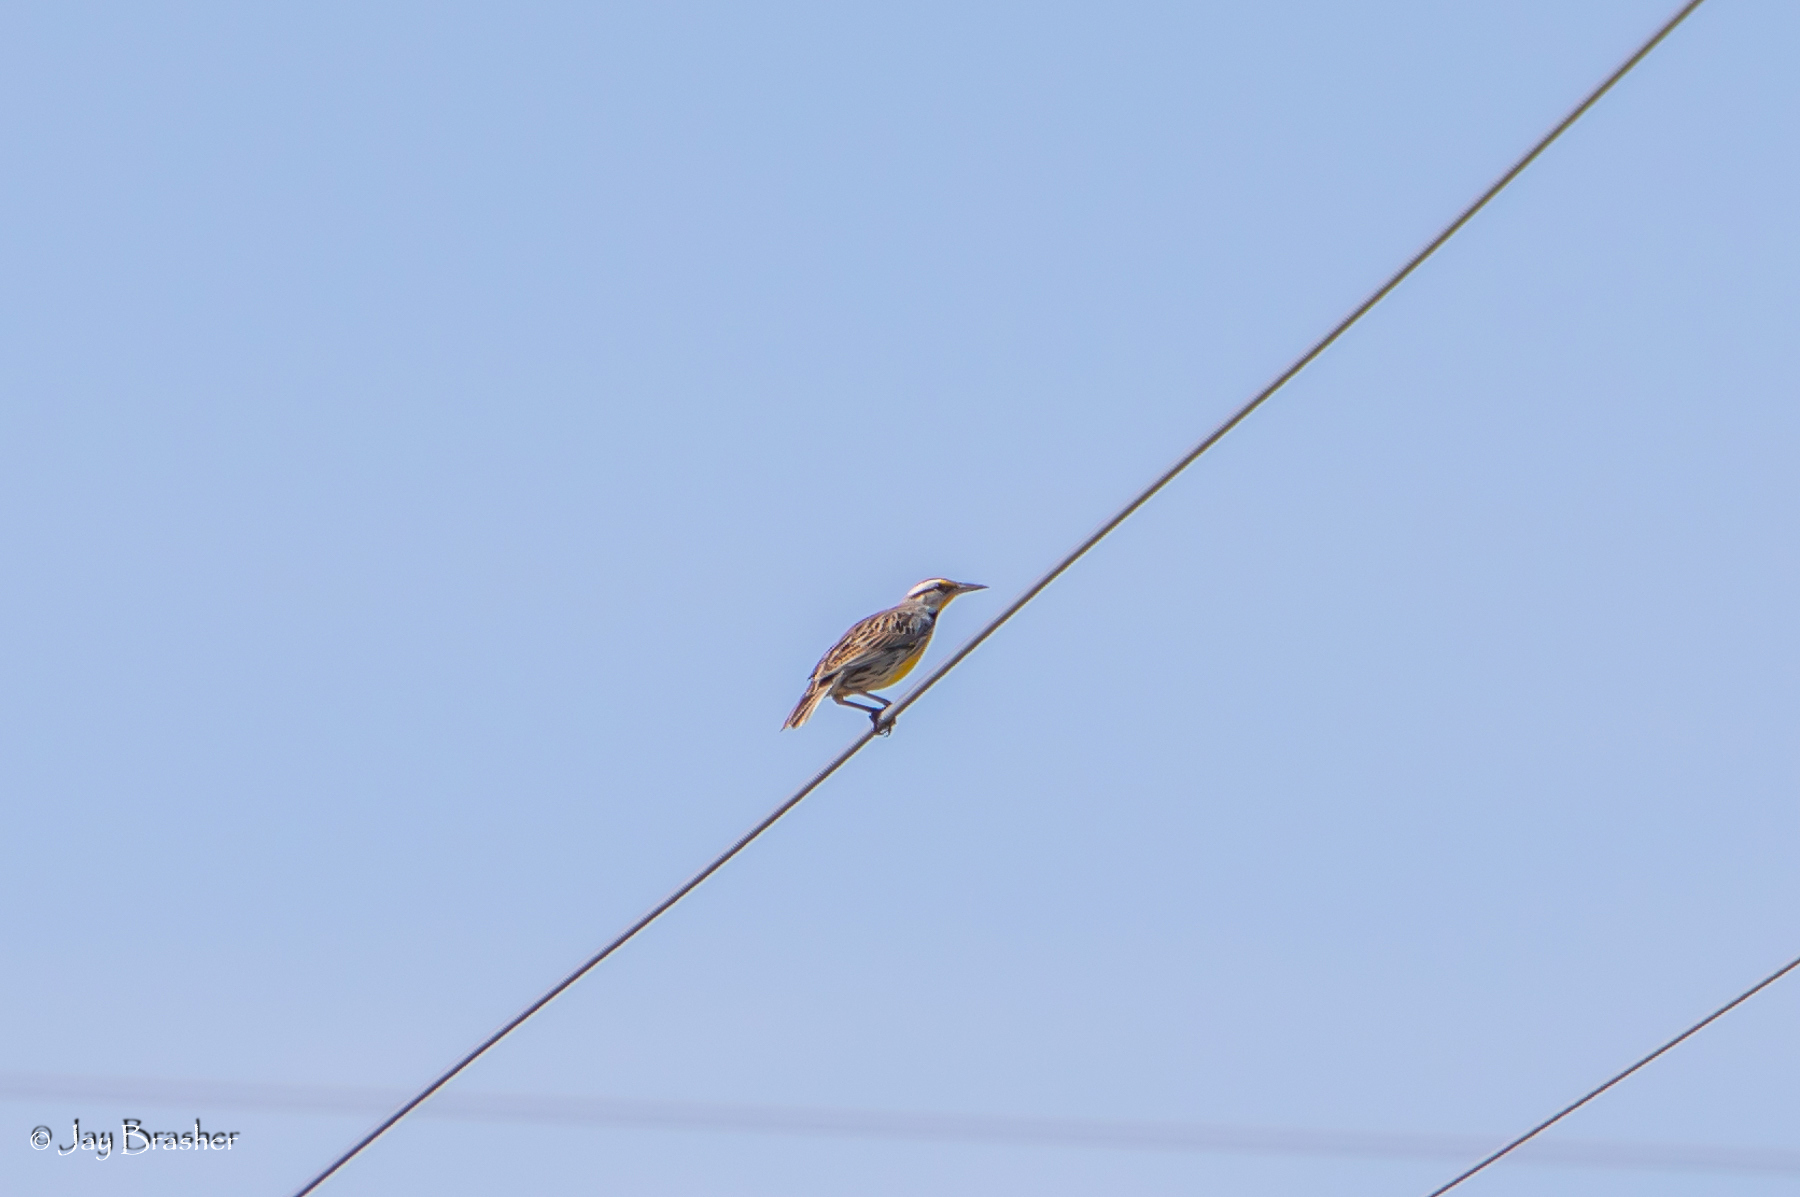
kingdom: Animalia
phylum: Chordata
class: Aves
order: Passeriformes
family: Icteridae
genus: Sturnella
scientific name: Sturnella magna
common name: Eastern meadowlark
